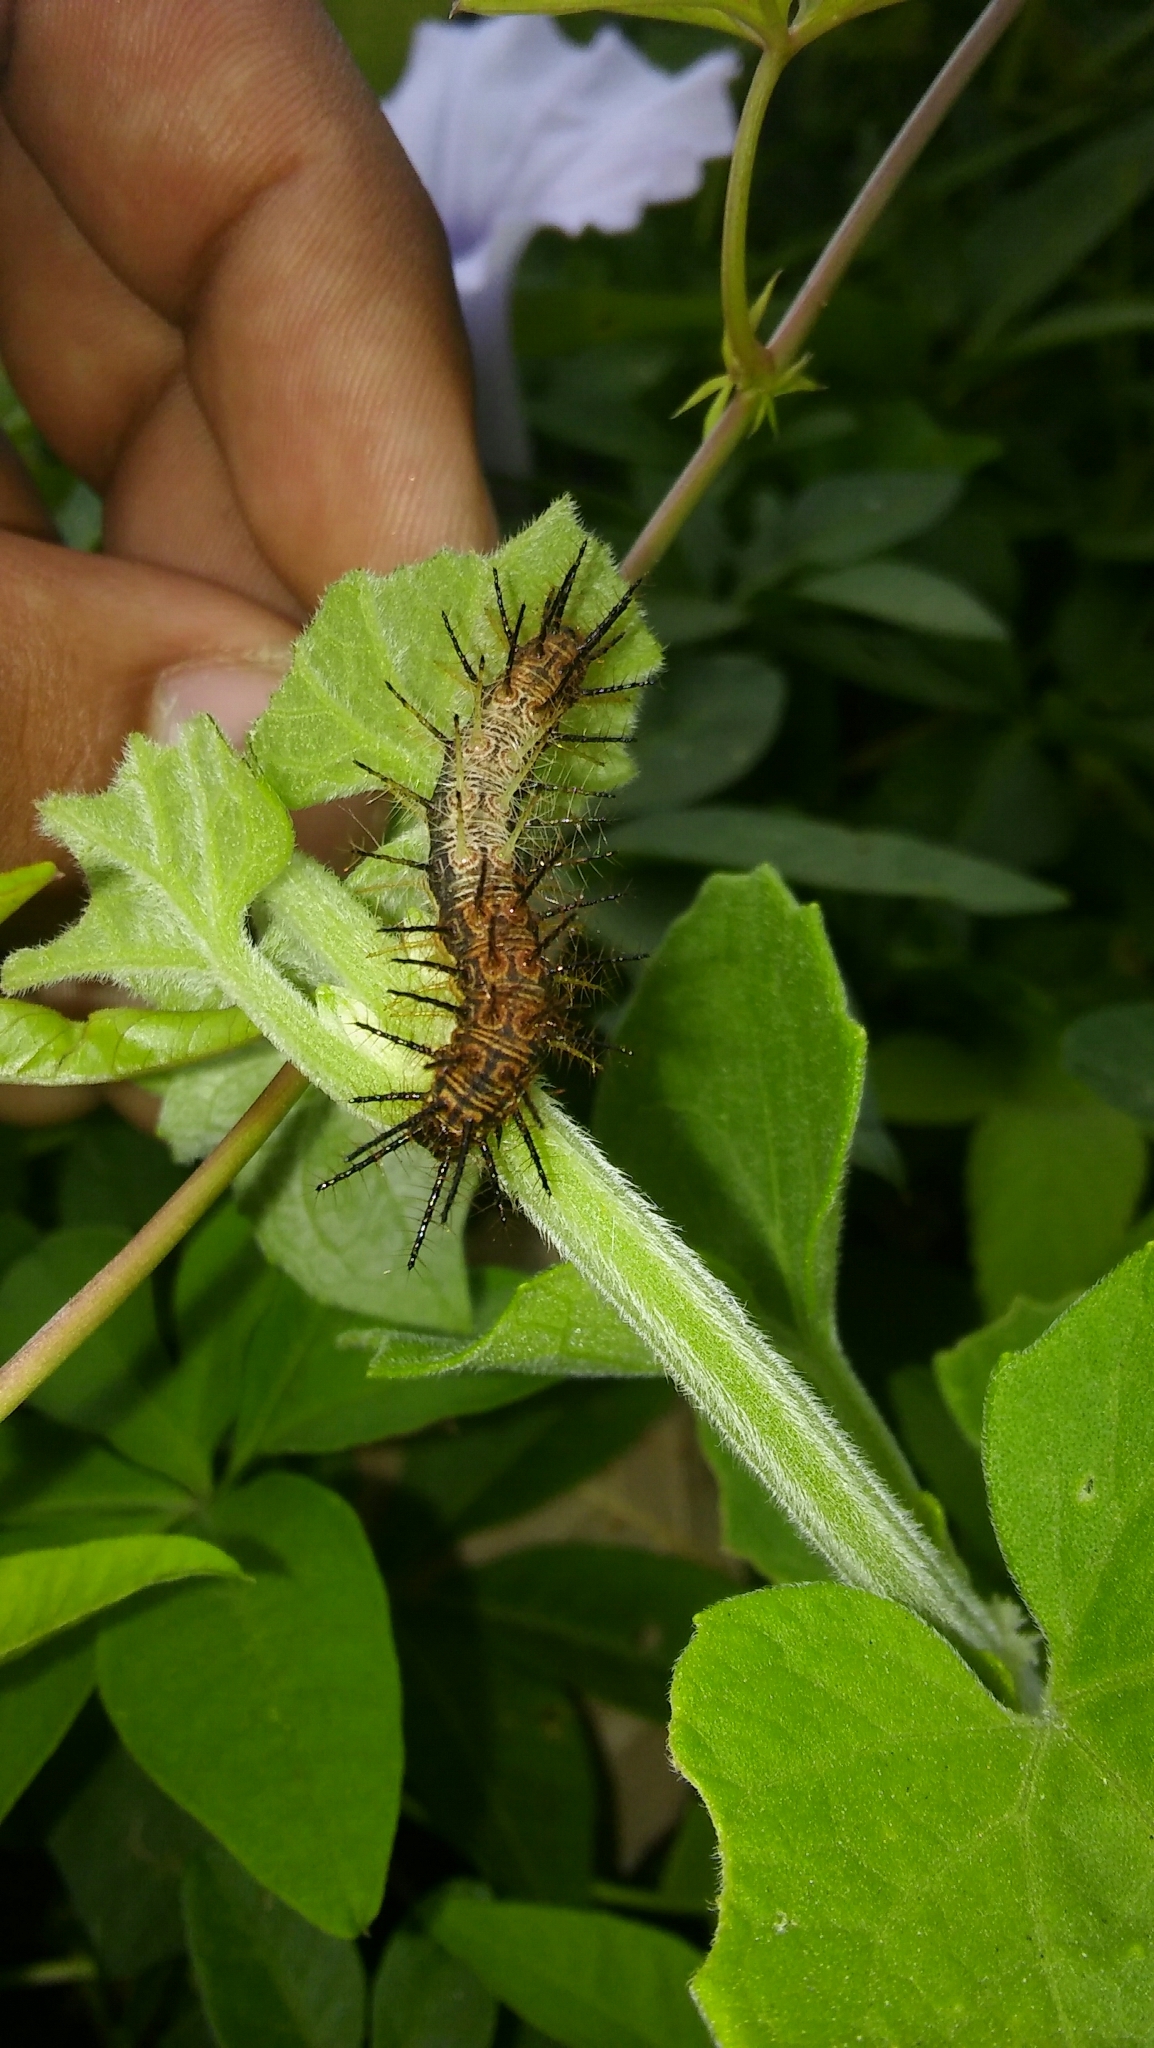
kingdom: Animalia
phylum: Arthropoda
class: Insecta
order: Lepidoptera
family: Nymphalidae
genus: Actinote
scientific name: Actinote
